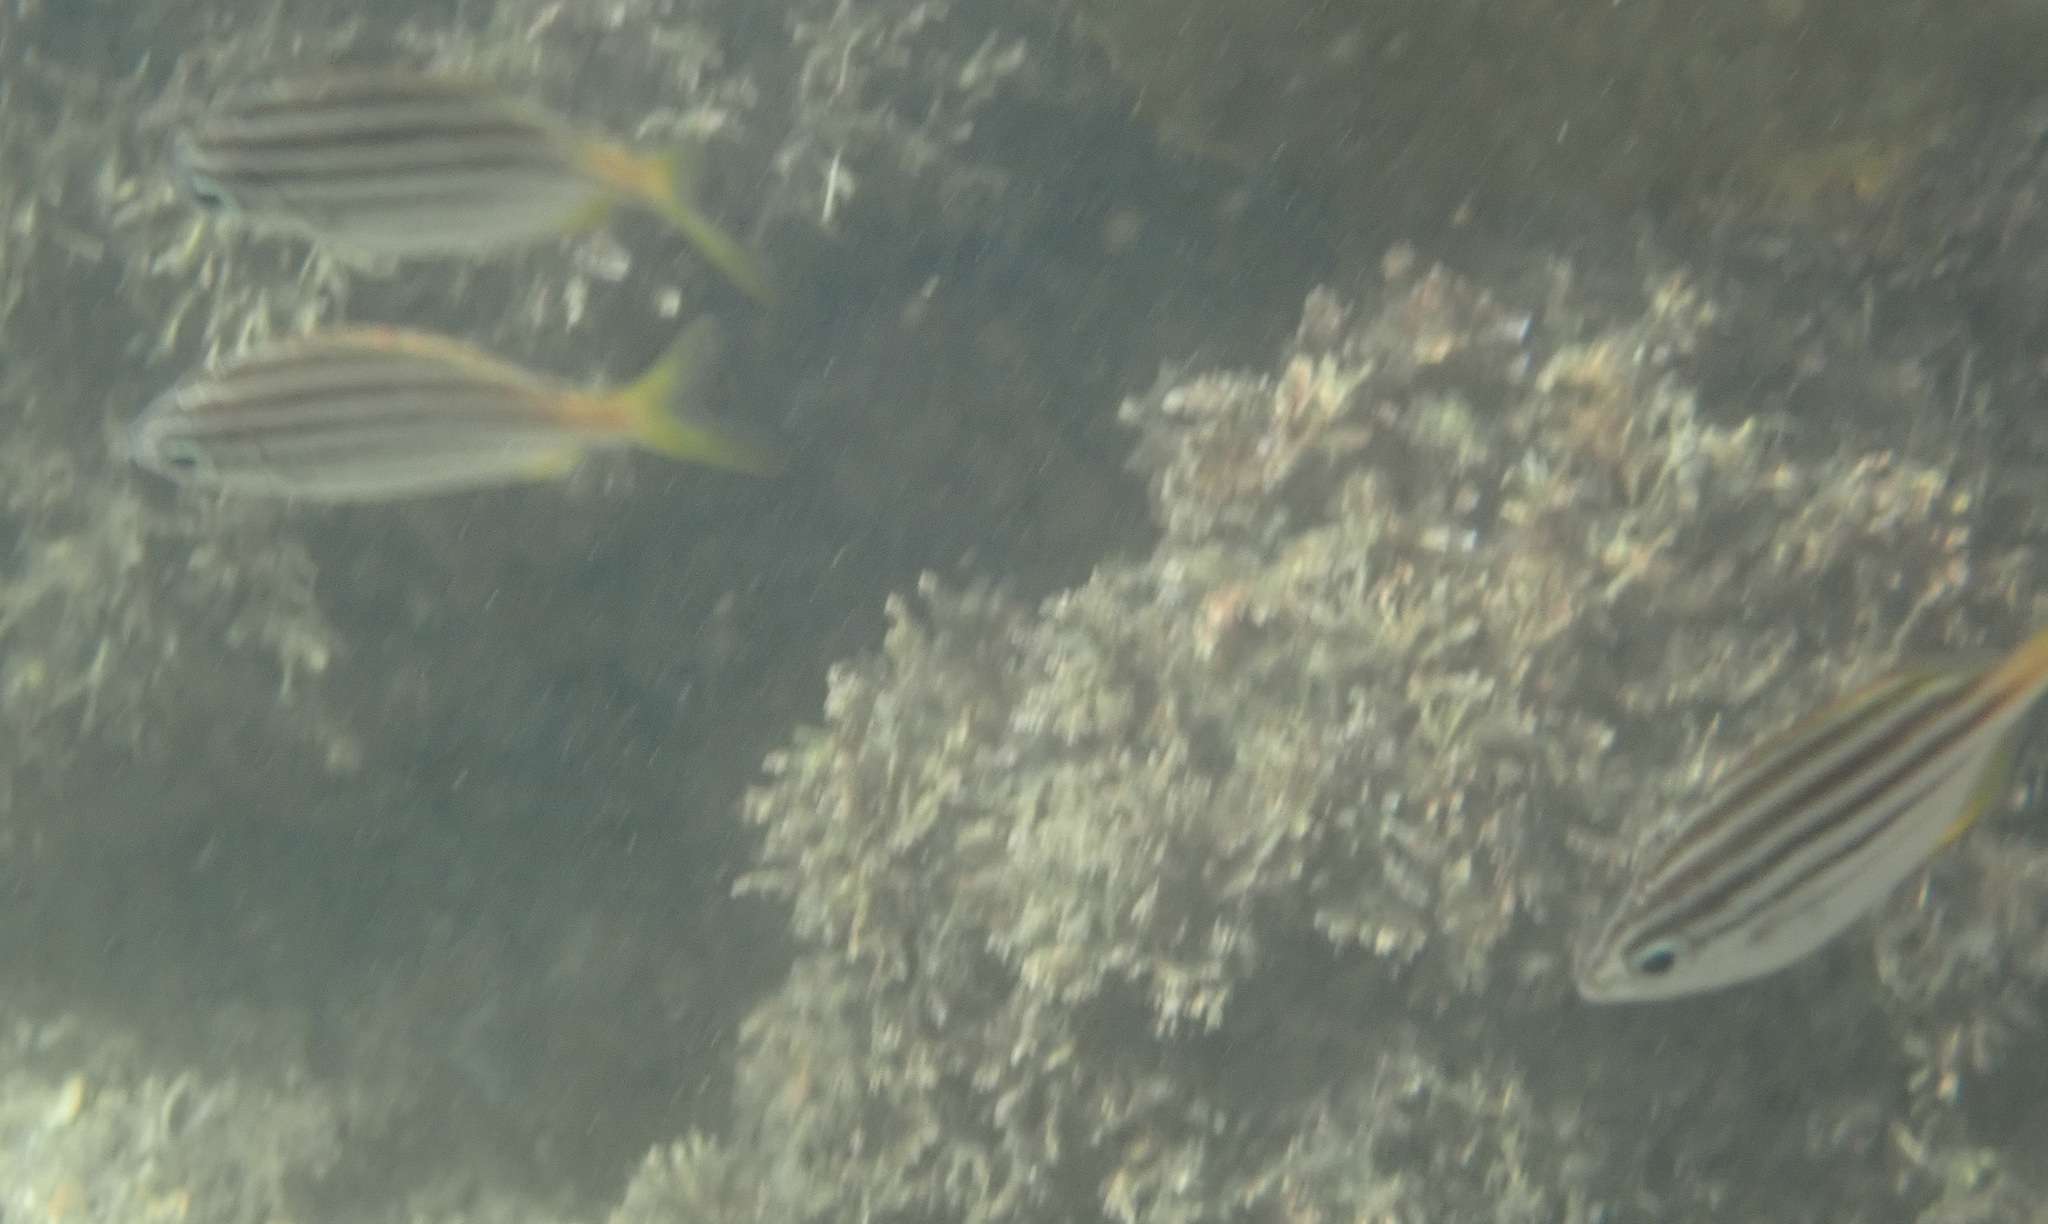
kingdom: Animalia
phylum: Chordata
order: Perciformes
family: Kyphosidae
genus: Atypichthys
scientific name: Atypichthys strigatus
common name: Australian mado
